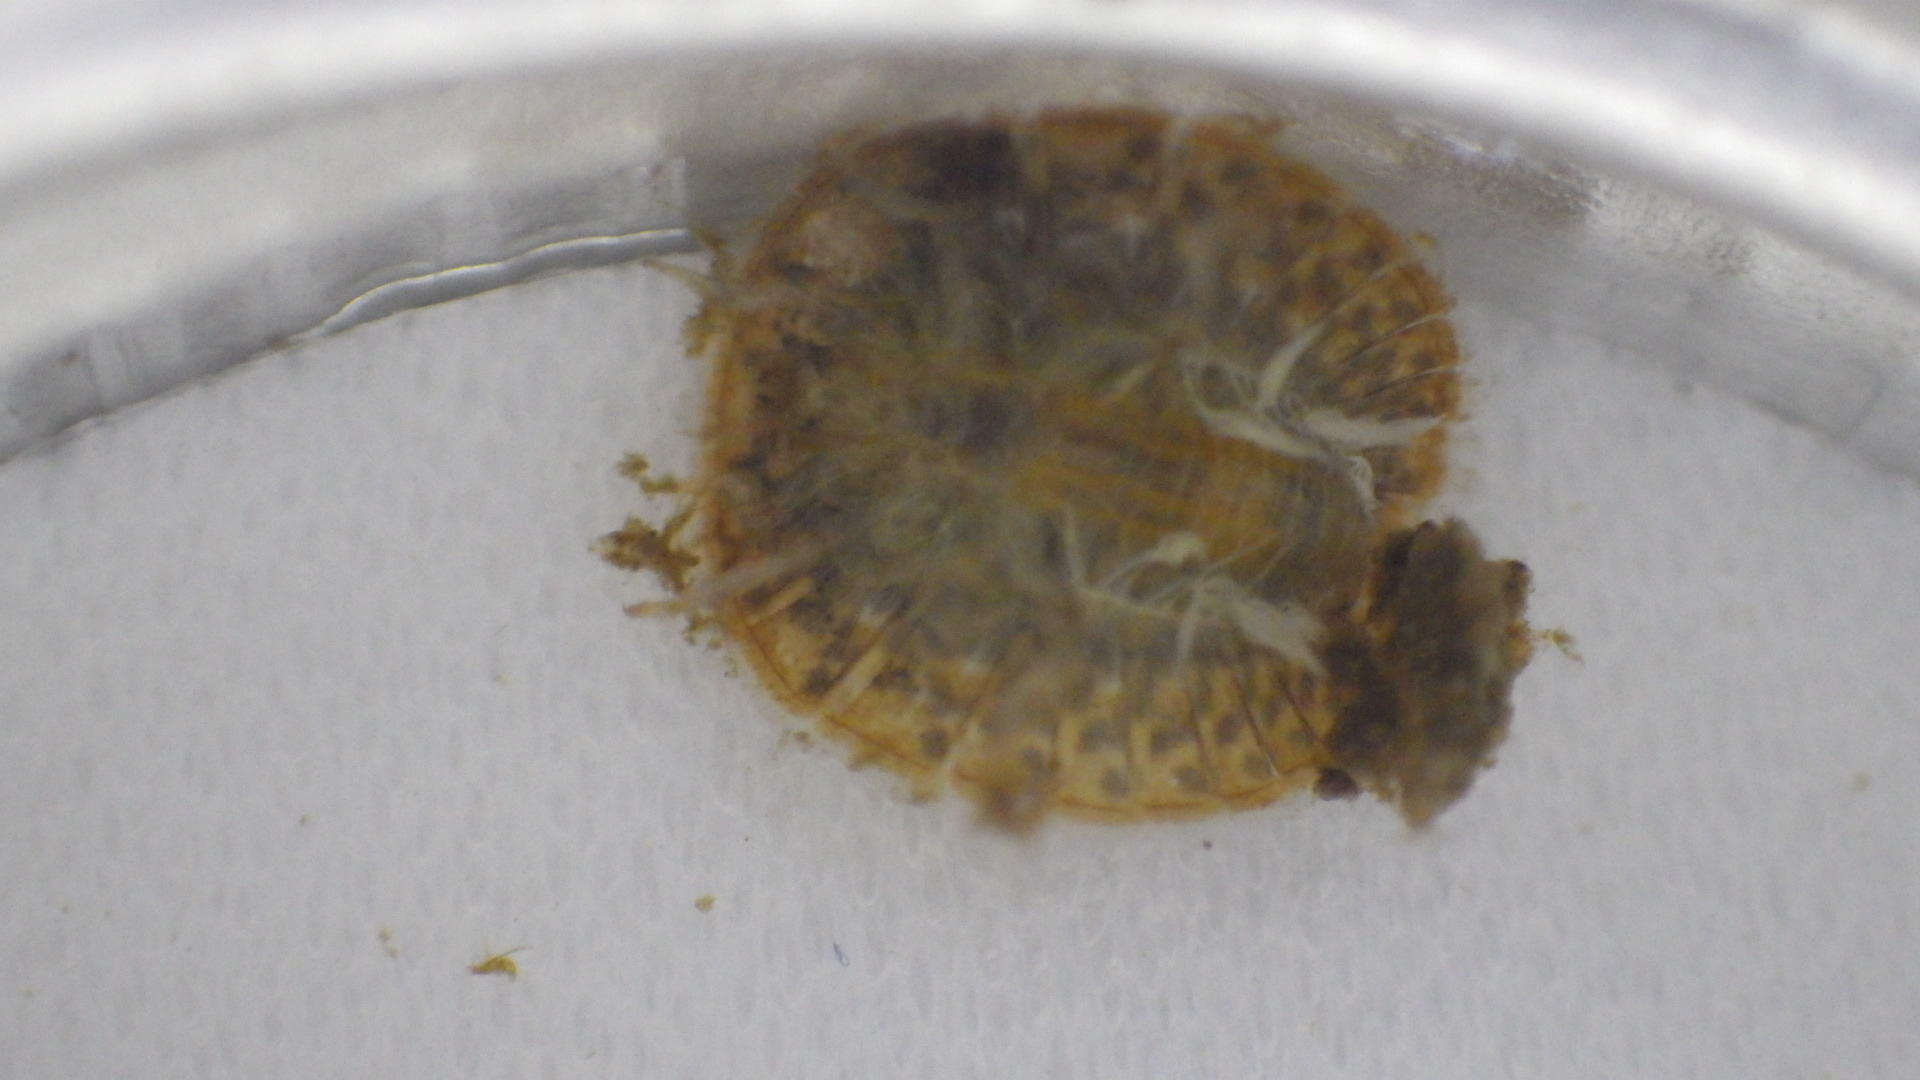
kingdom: Animalia
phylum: Arthropoda
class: Insecta
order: Coleoptera
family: Psephenidae
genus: Psephenus
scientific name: Psephenus herricki
